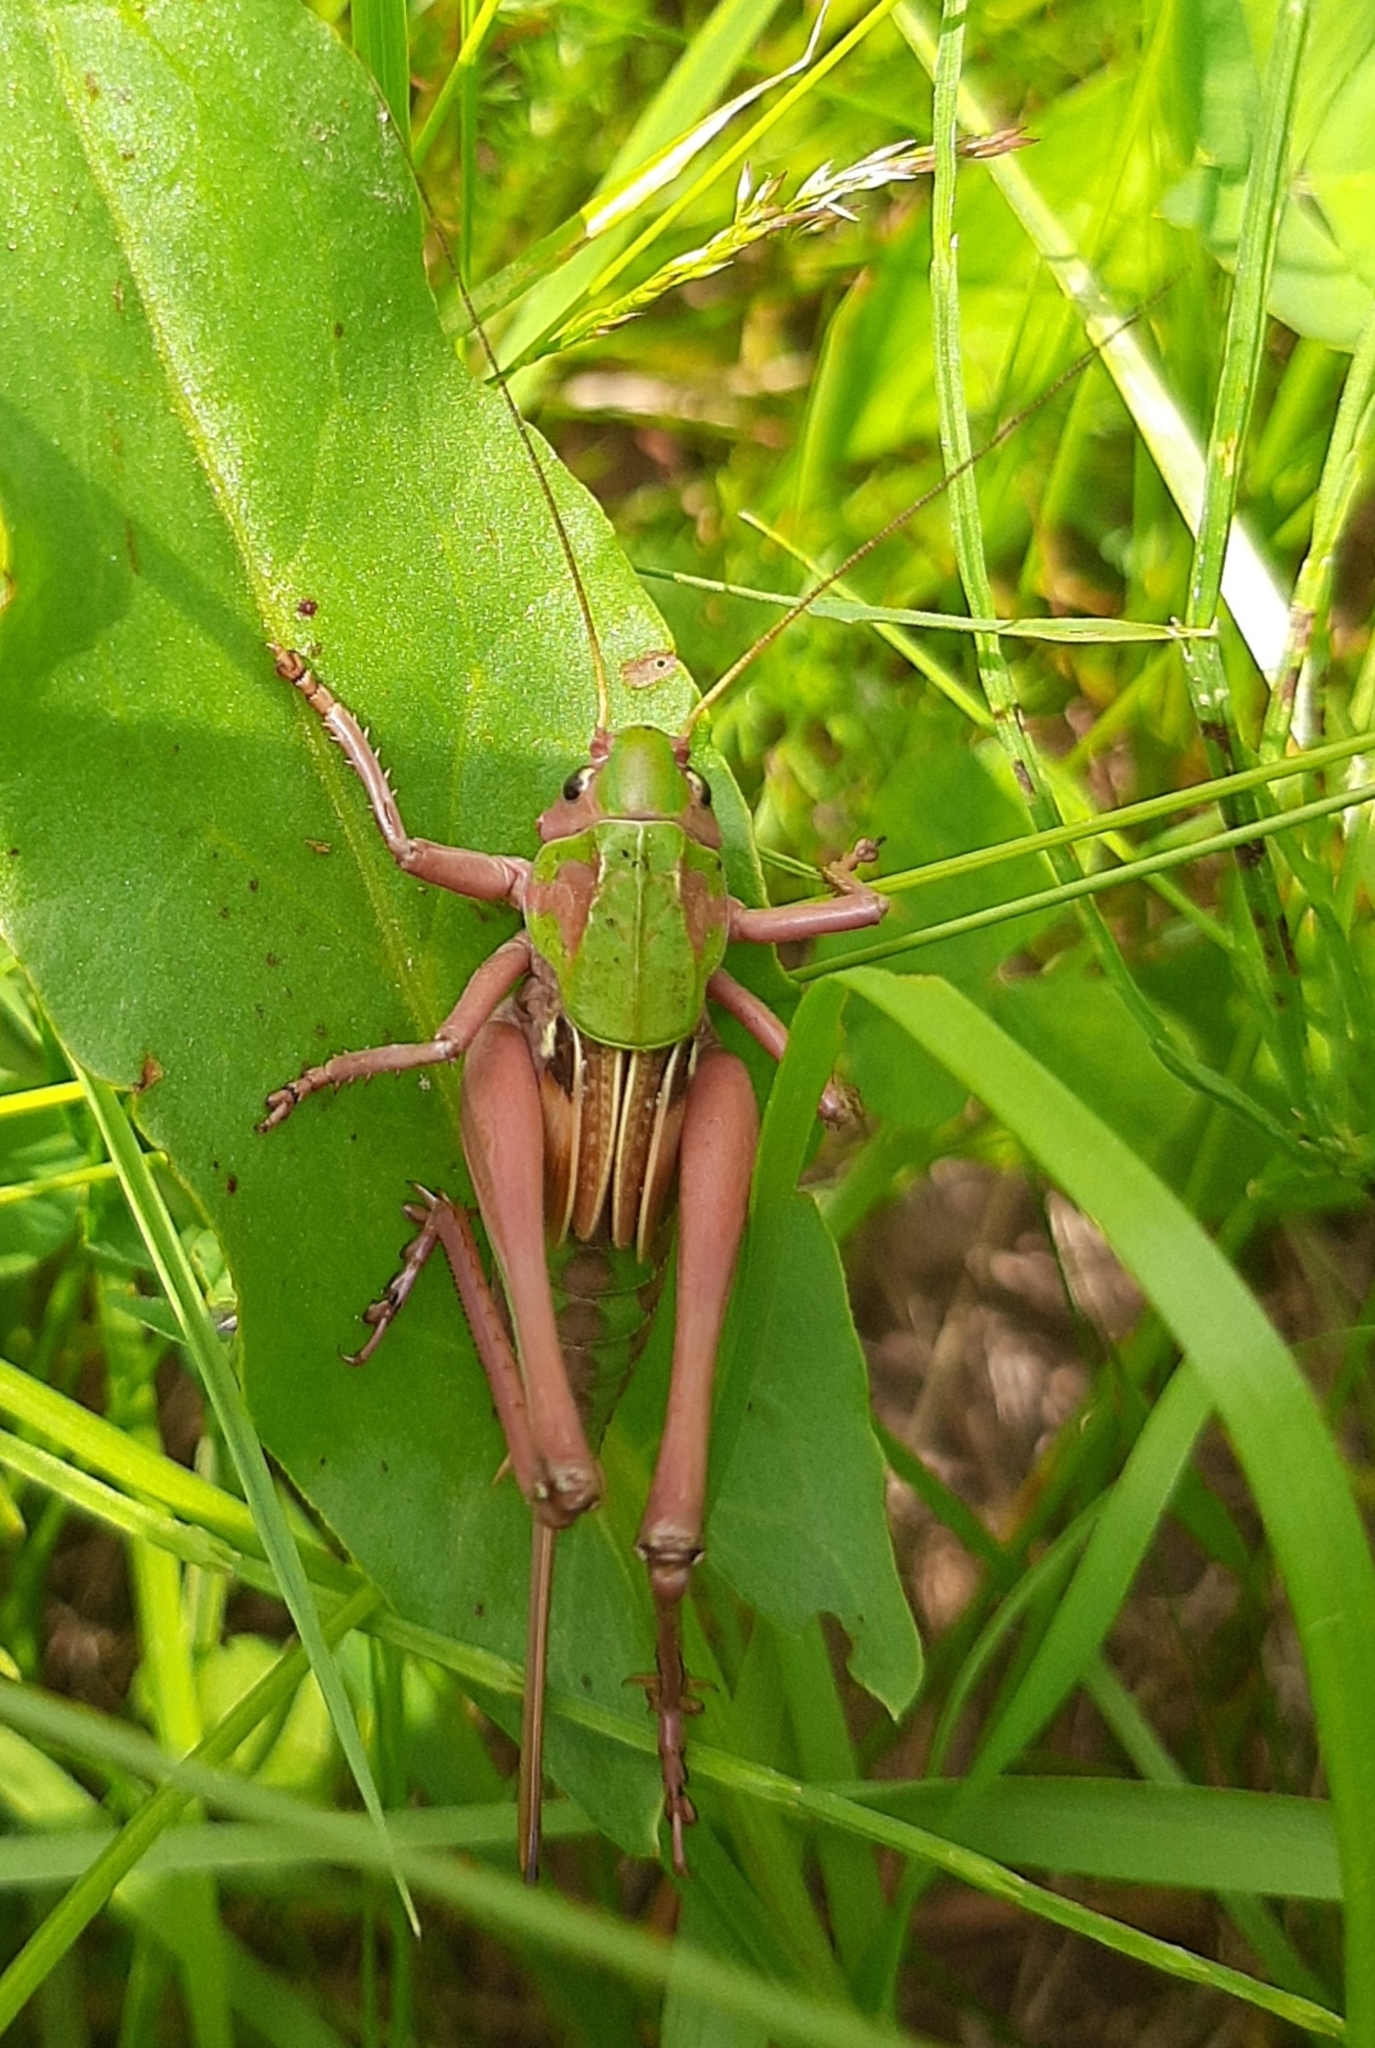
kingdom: Animalia
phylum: Arthropoda
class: Insecta
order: Orthoptera
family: Tettigoniidae
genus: Decticus
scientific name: Decticus verrucivorus
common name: Wart-biter
